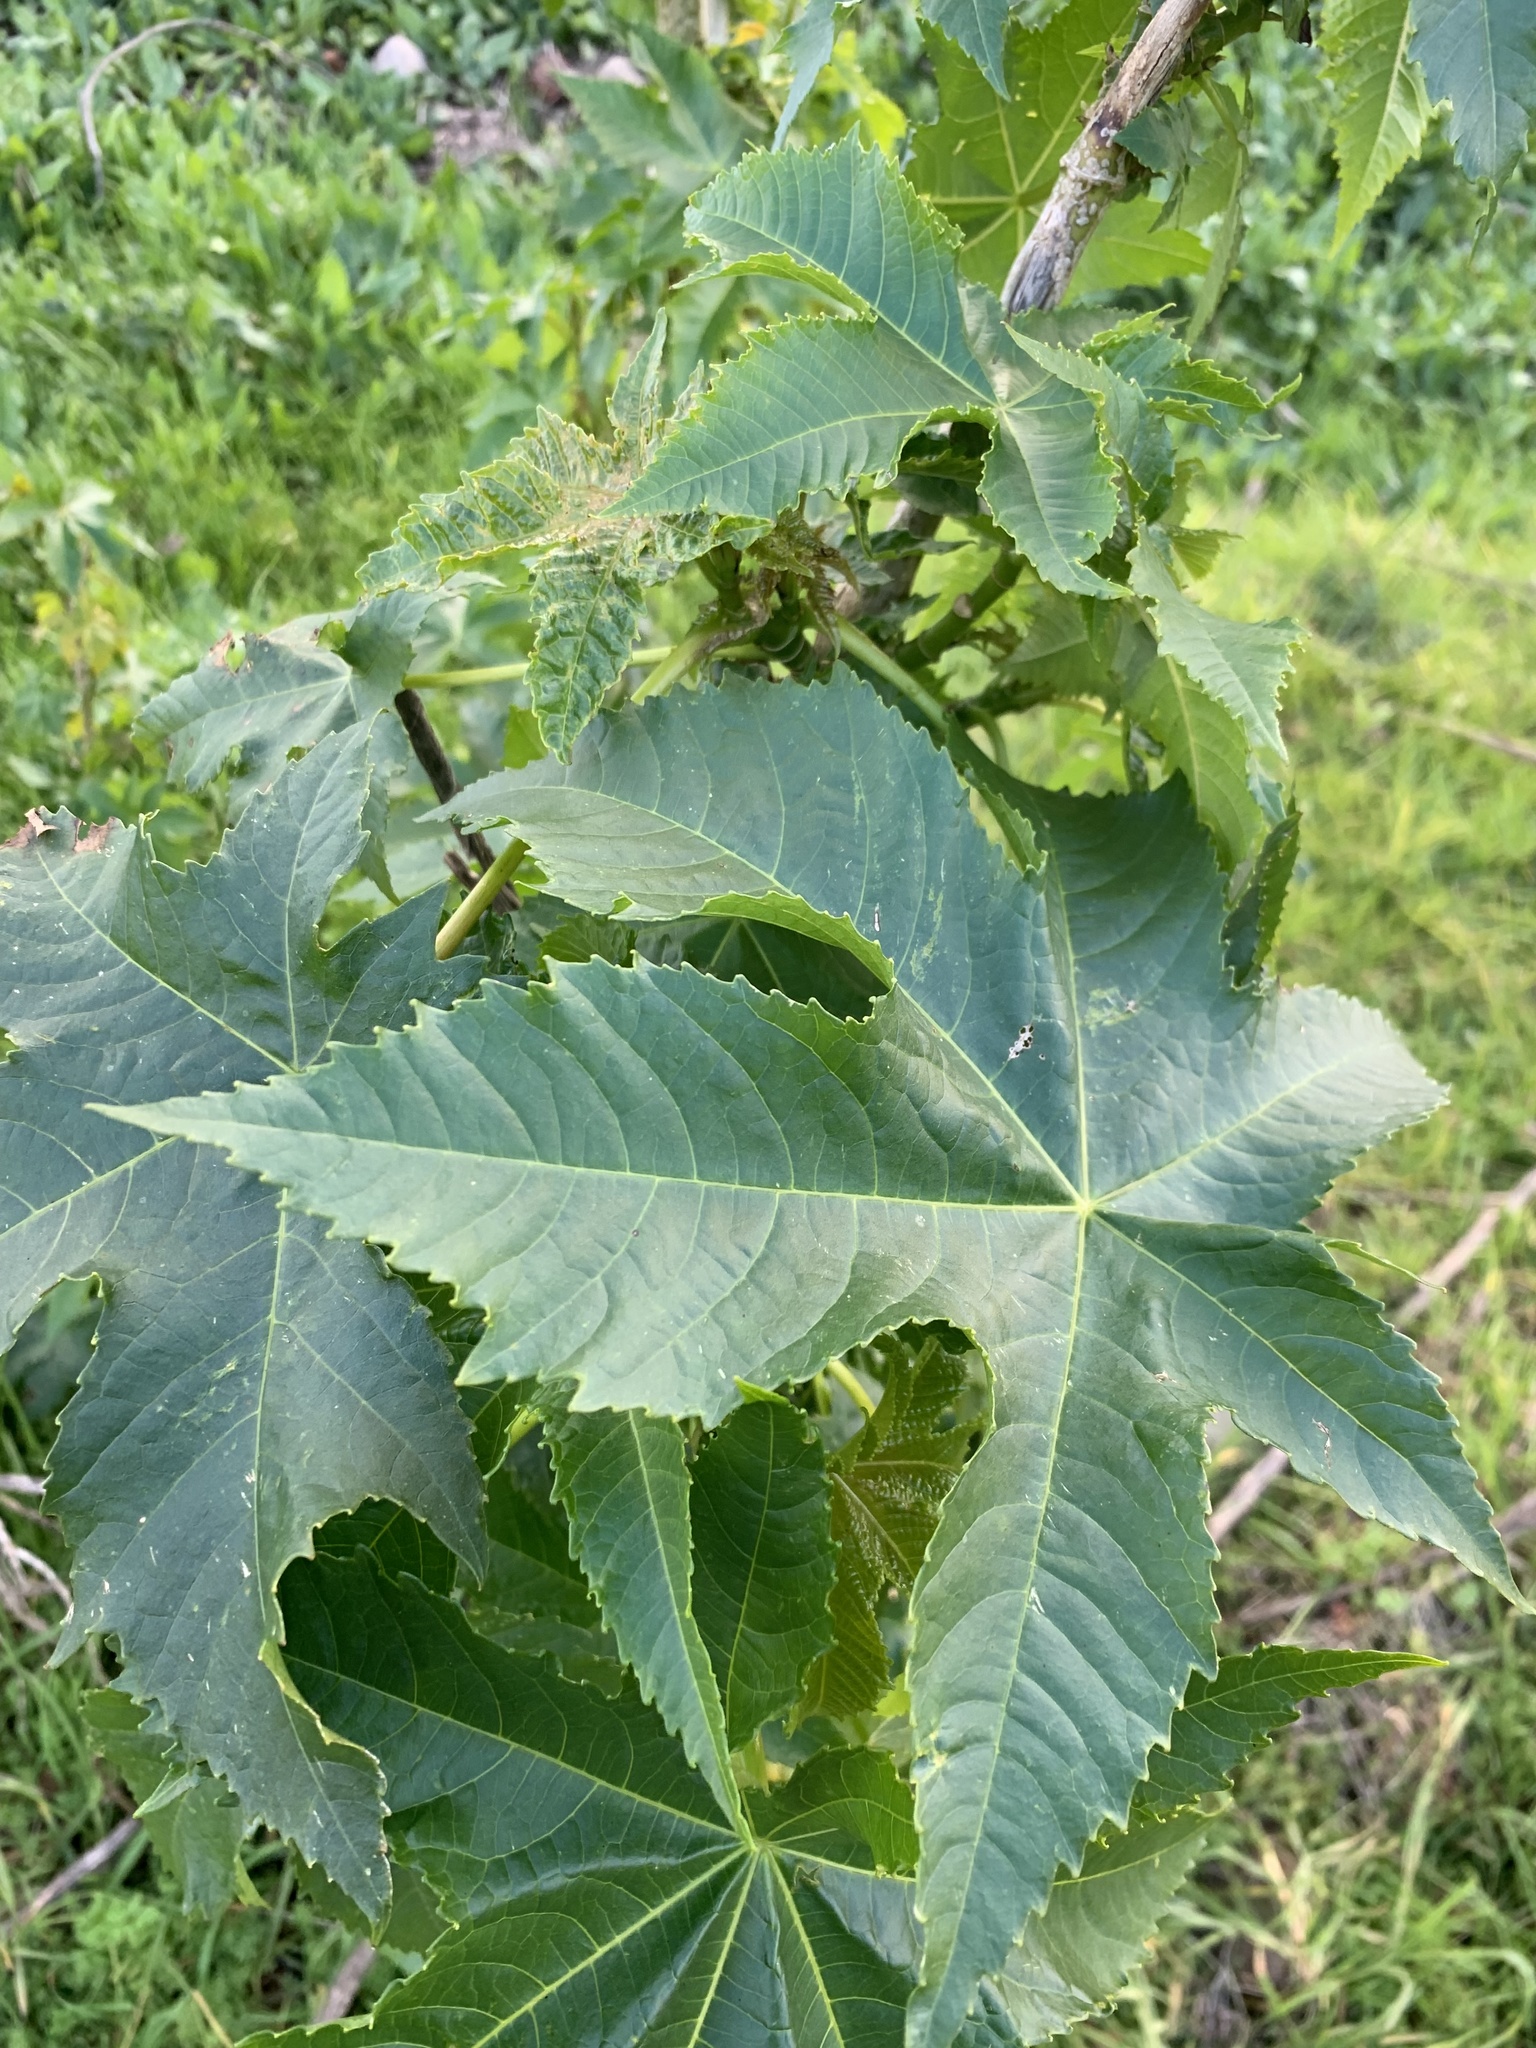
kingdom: Plantae
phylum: Tracheophyta
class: Magnoliopsida
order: Malpighiales
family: Euphorbiaceae
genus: Ricinus
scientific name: Ricinus communis
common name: Castor-oil-plant
